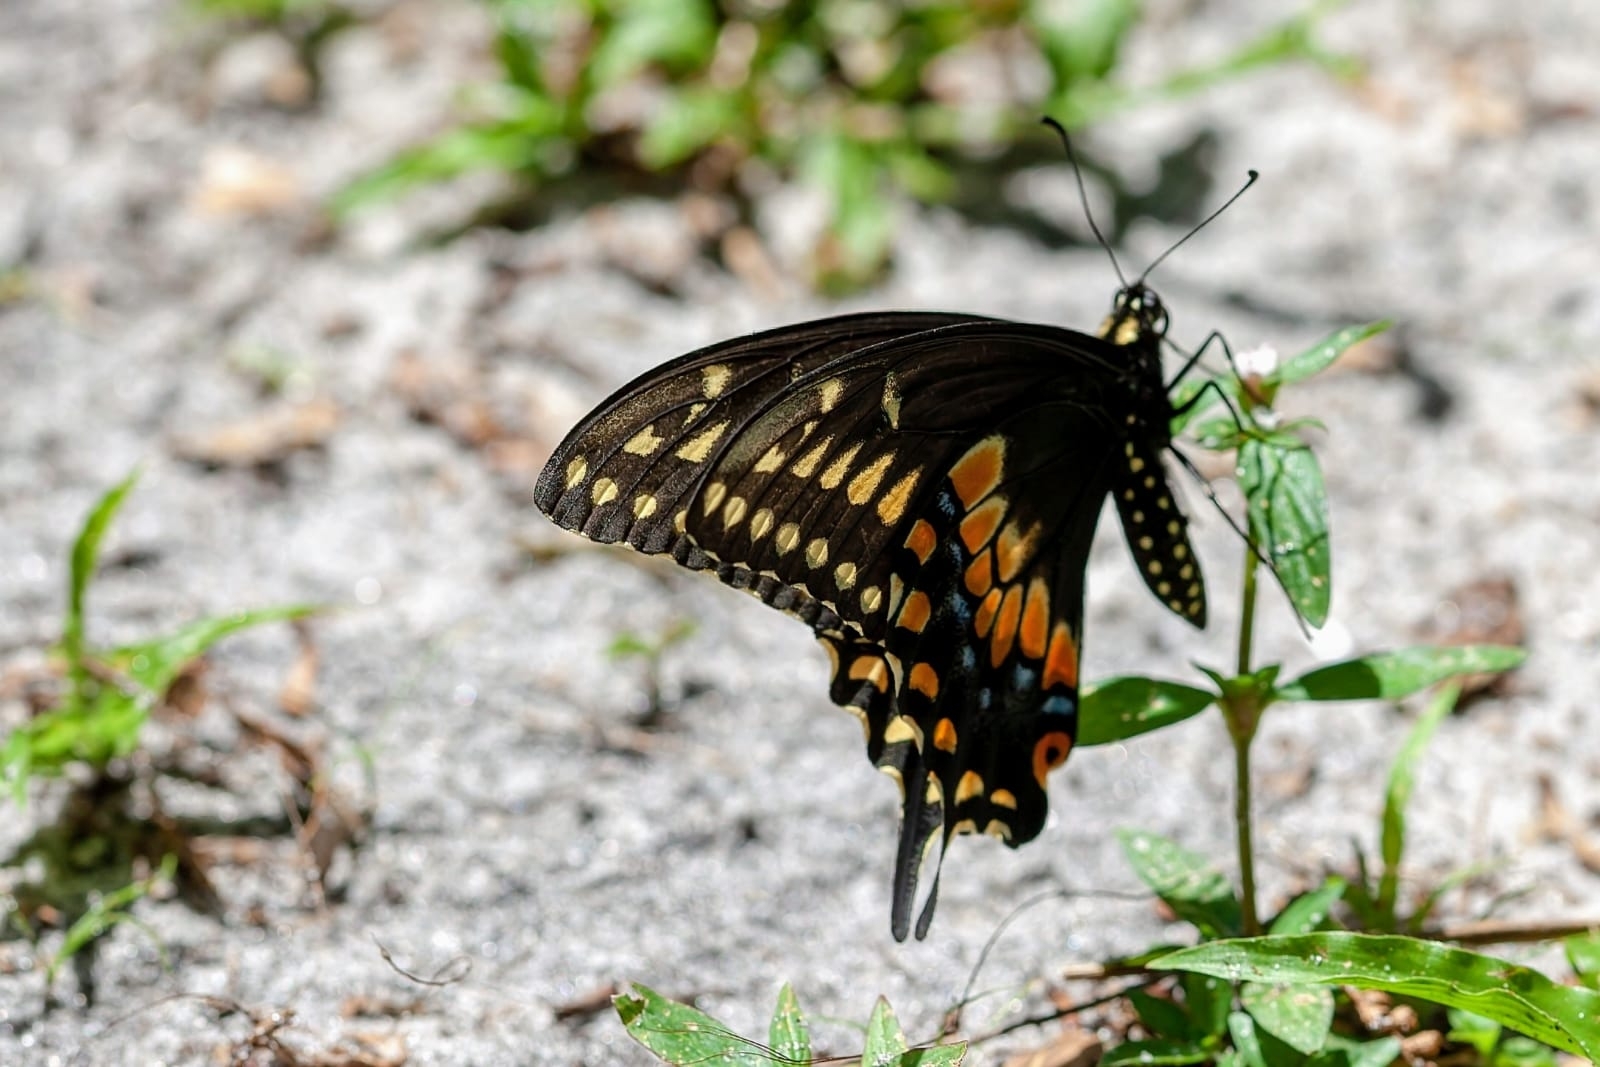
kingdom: Animalia
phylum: Arthropoda
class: Insecta
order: Lepidoptera
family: Papilionidae
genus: Papilio
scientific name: Papilio polyxenes
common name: Black swallowtail
